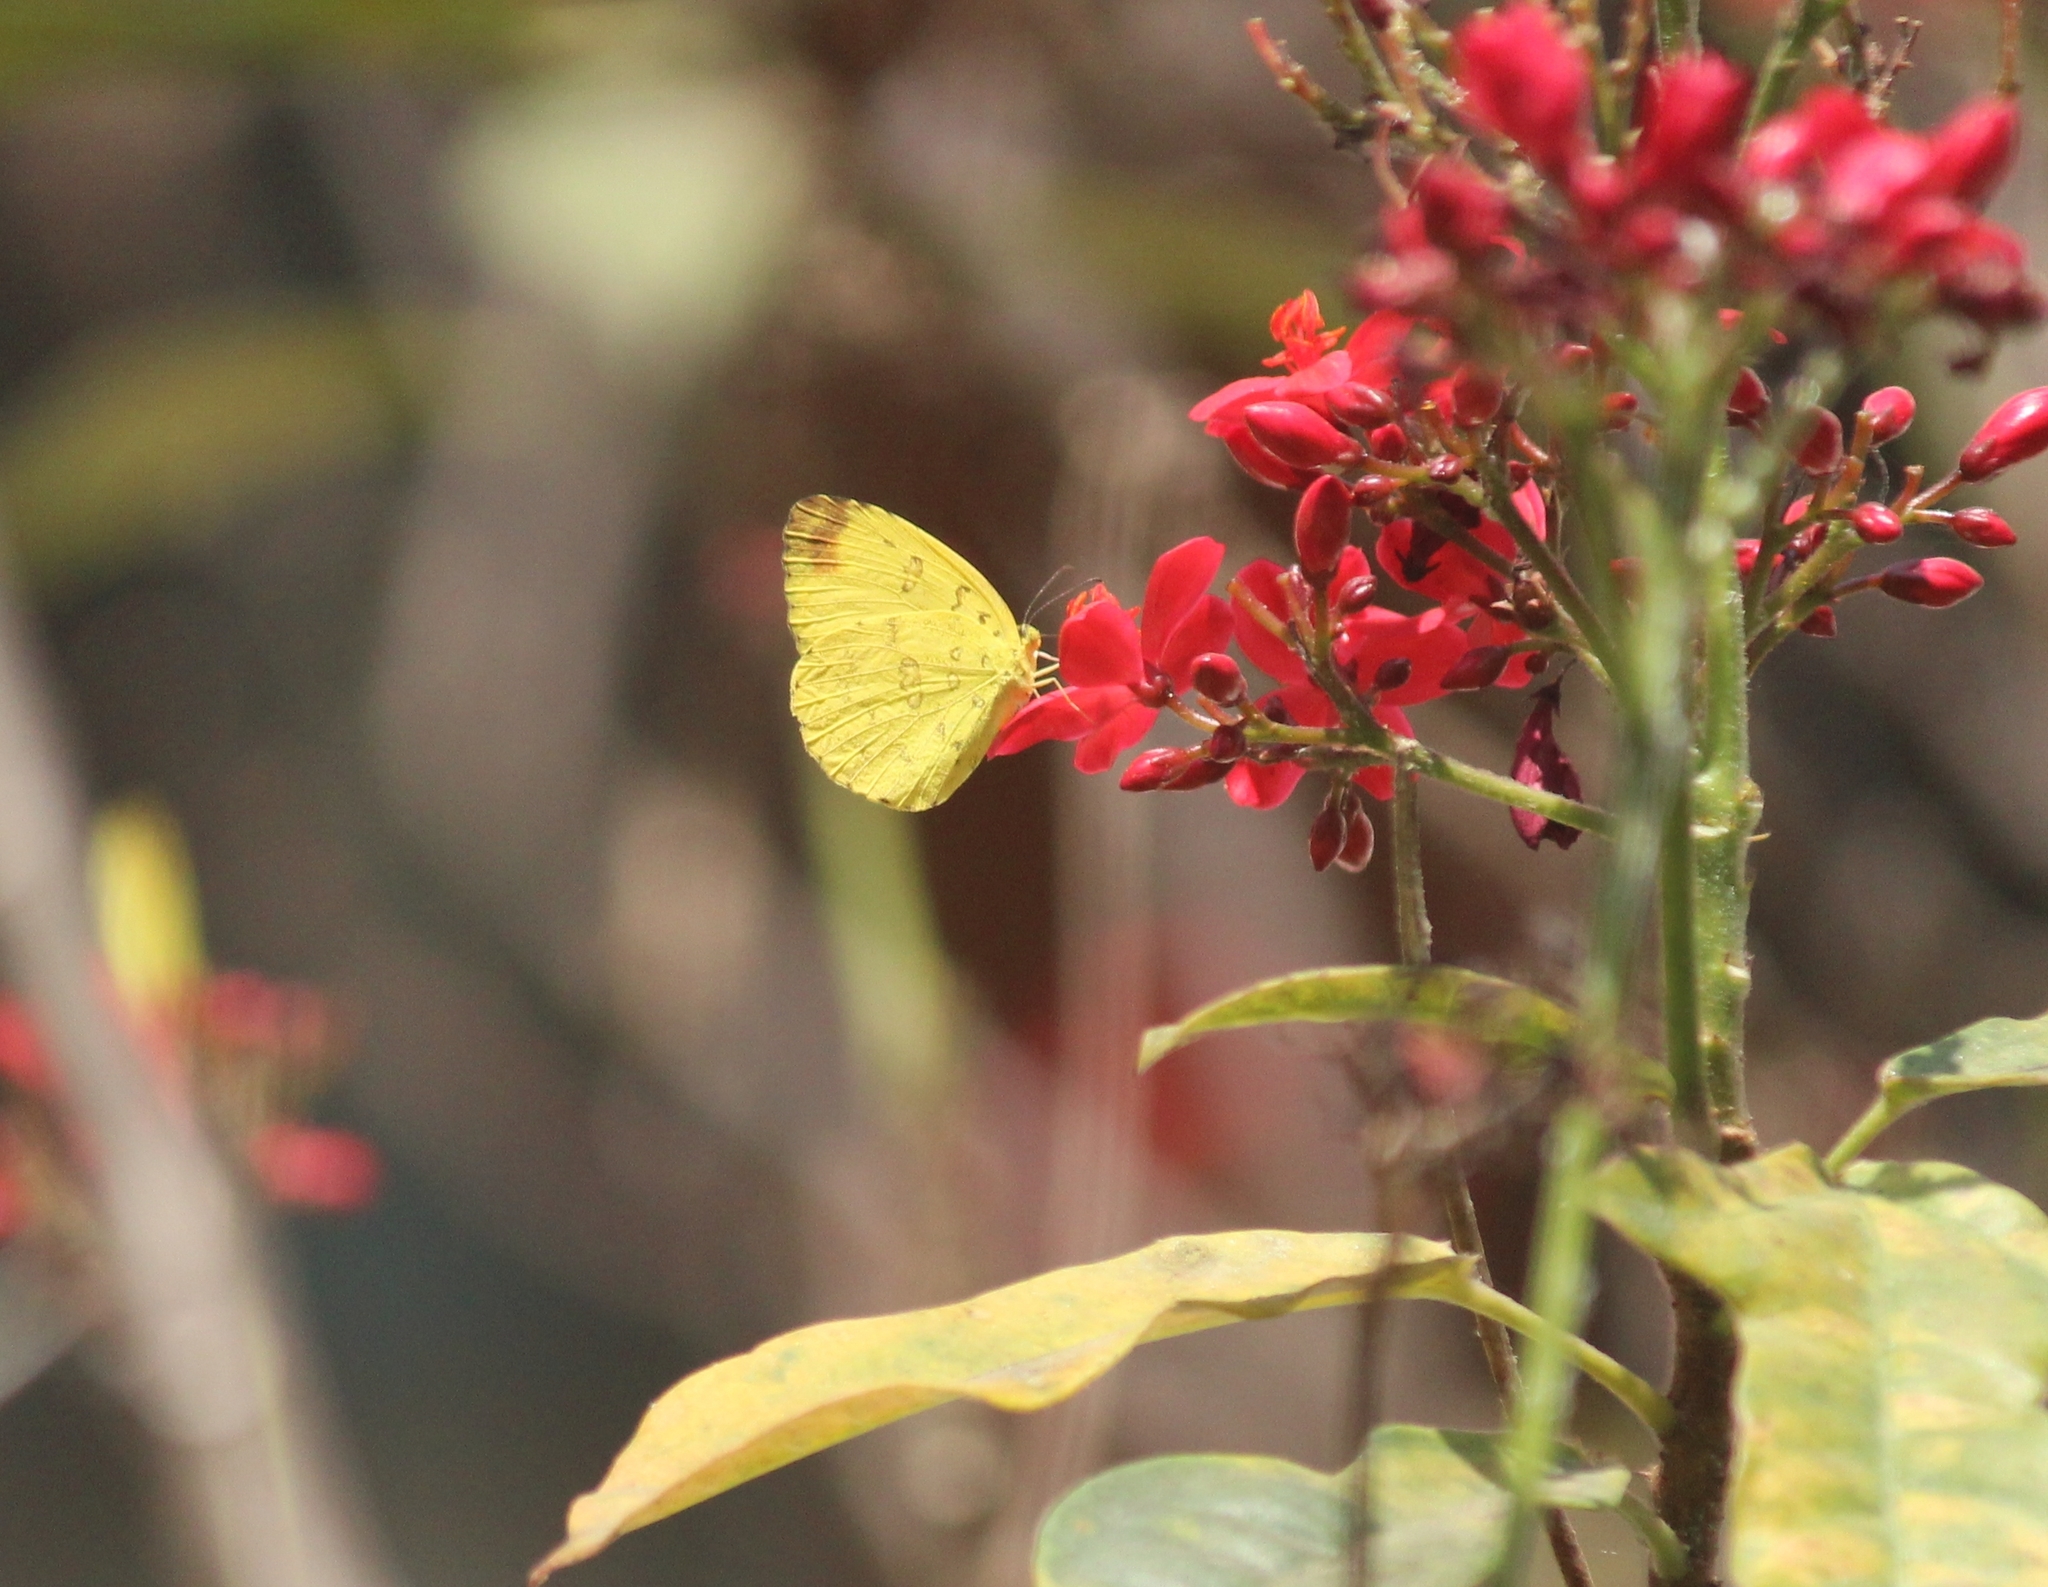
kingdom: Animalia
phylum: Arthropoda
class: Insecta
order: Lepidoptera
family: Pieridae
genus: Eurema
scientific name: Eurema blanda
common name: Three-spot grass yellow
